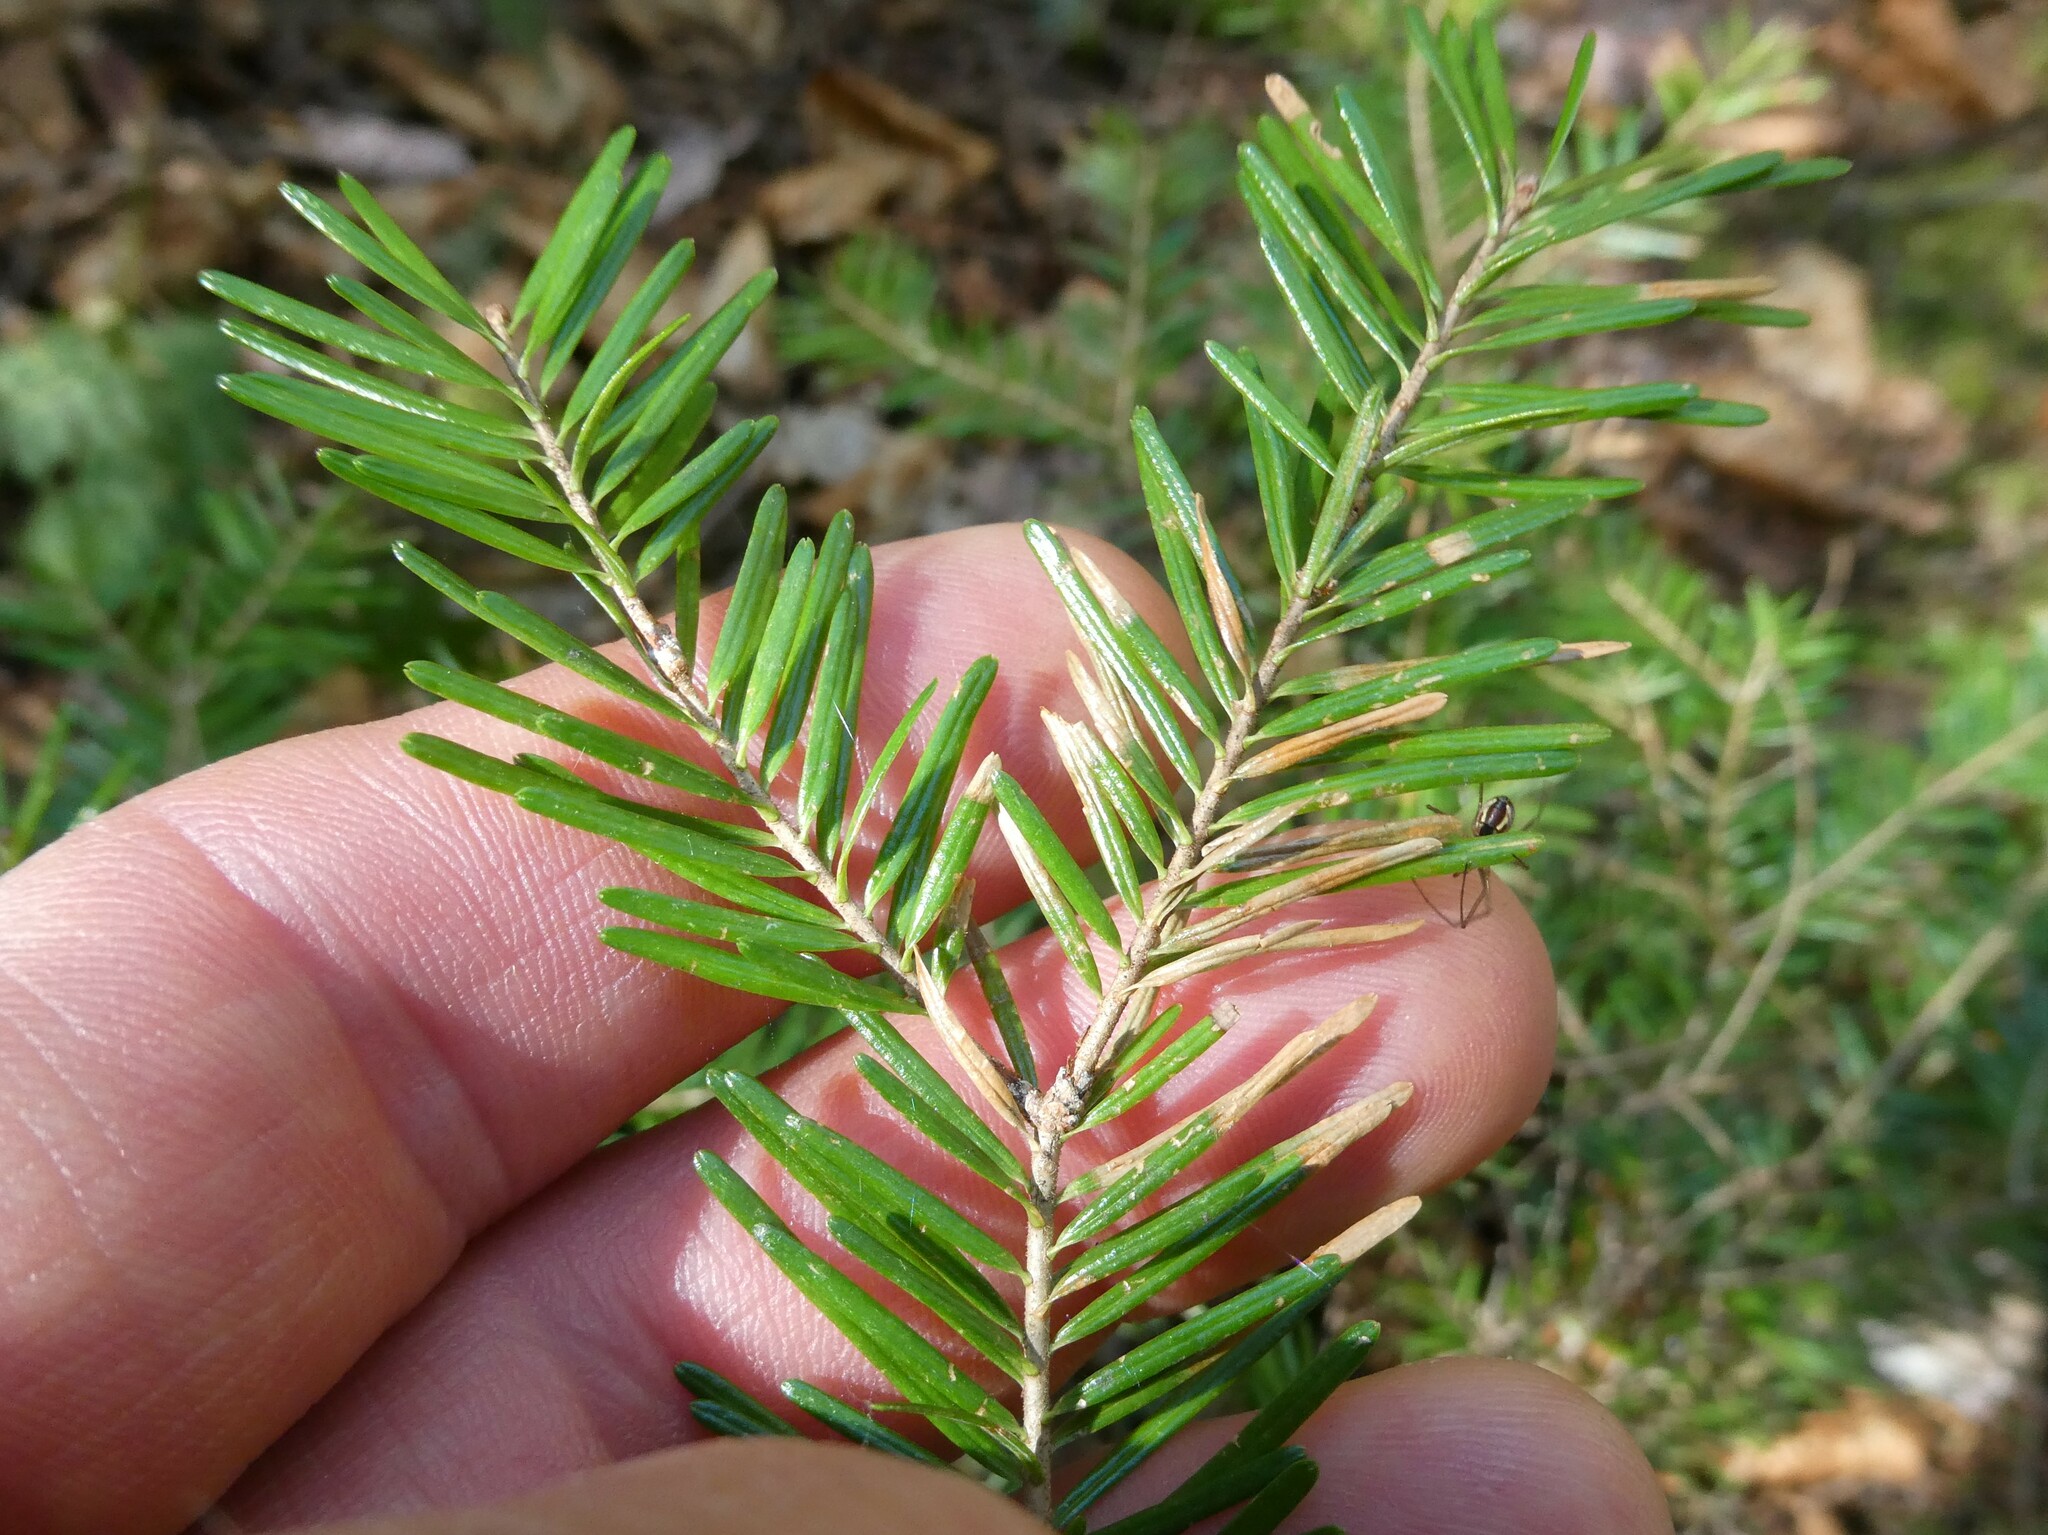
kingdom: Plantae
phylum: Tracheophyta
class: Pinopsida
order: Pinales
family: Taxaceae
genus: Taxus
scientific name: Taxus canadensis
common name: American yew
